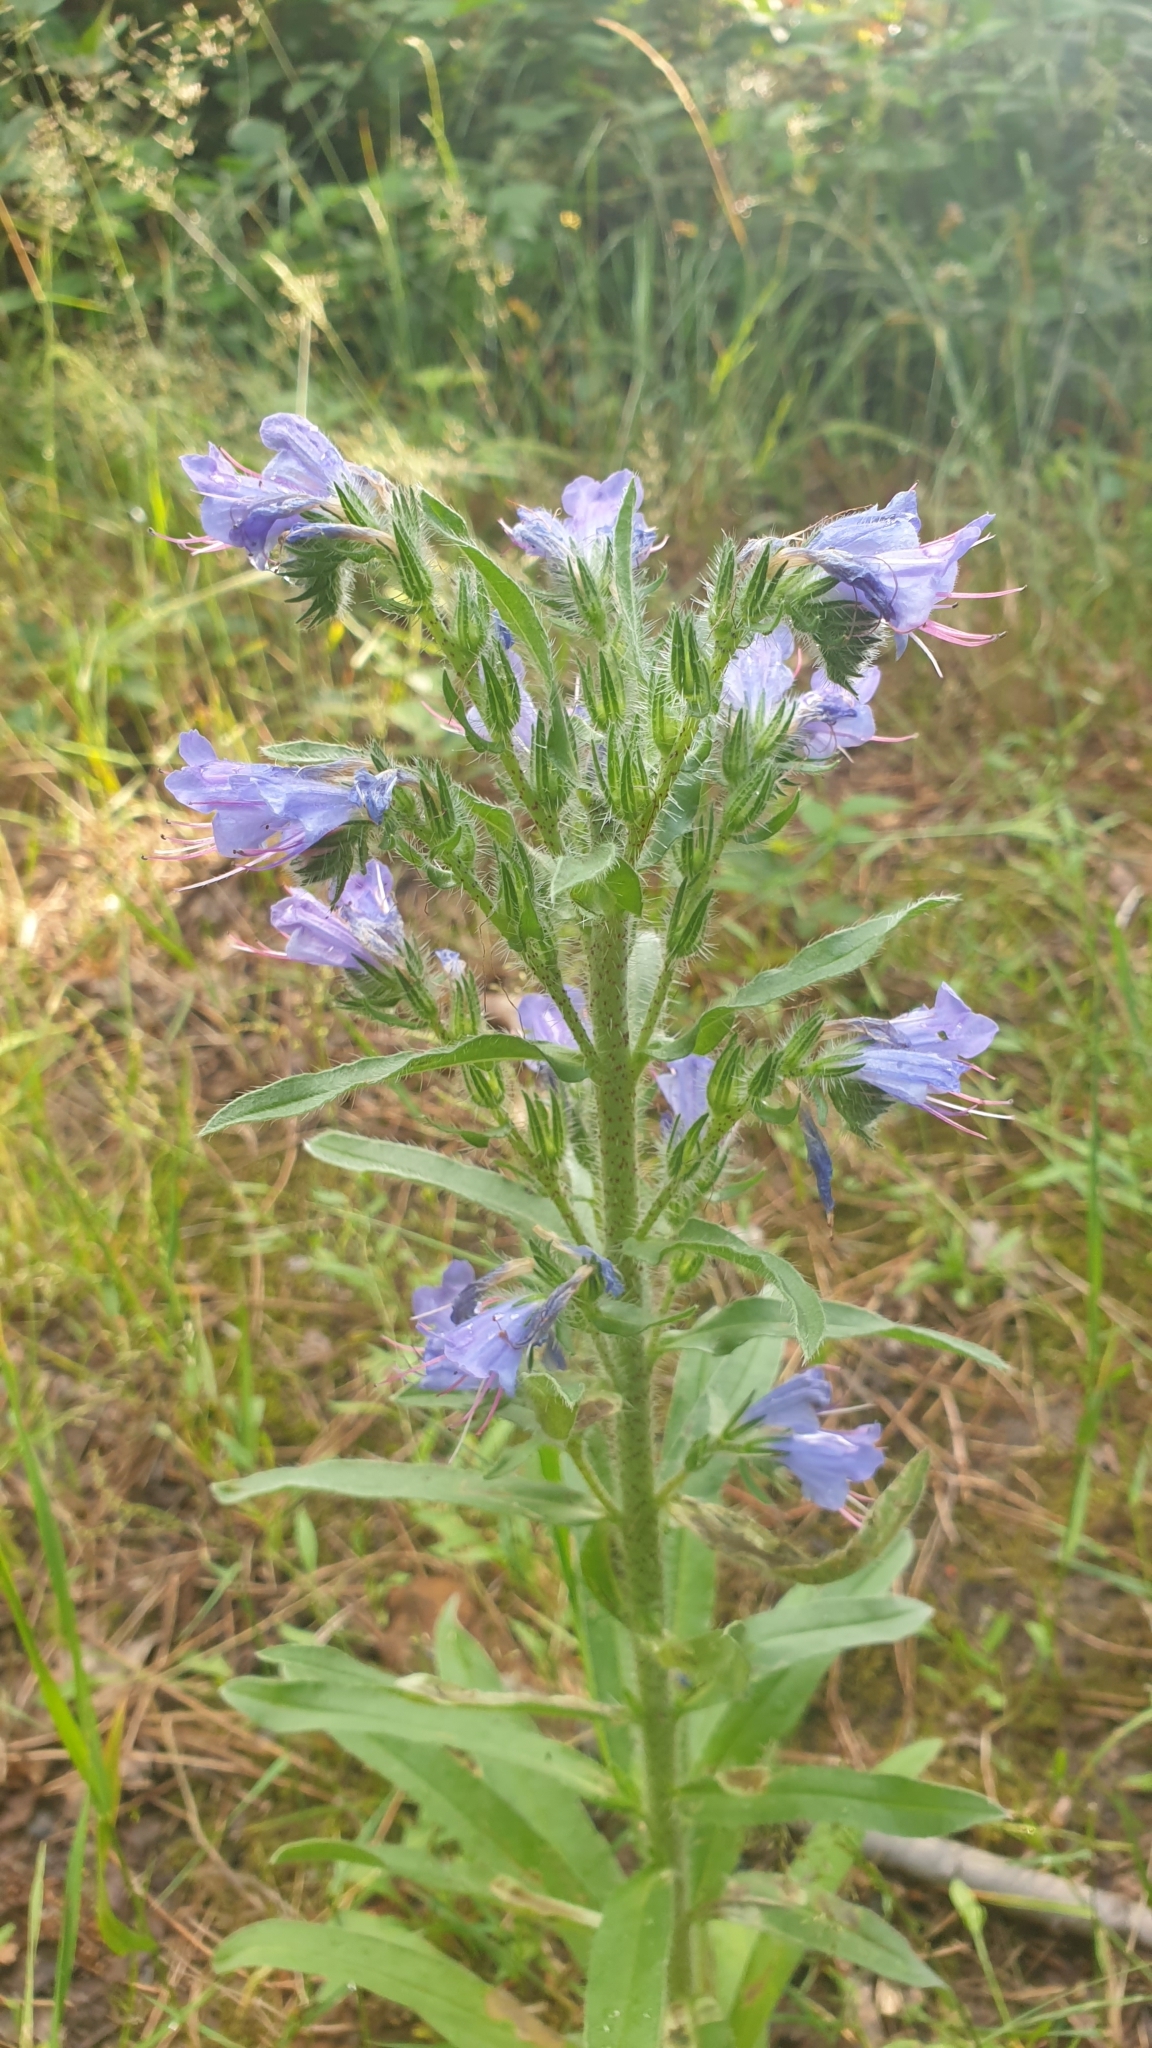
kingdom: Plantae
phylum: Tracheophyta
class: Magnoliopsida
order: Boraginales
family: Boraginaceae
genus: Echium
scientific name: Echium vulgare
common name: Common viper's bugloss
